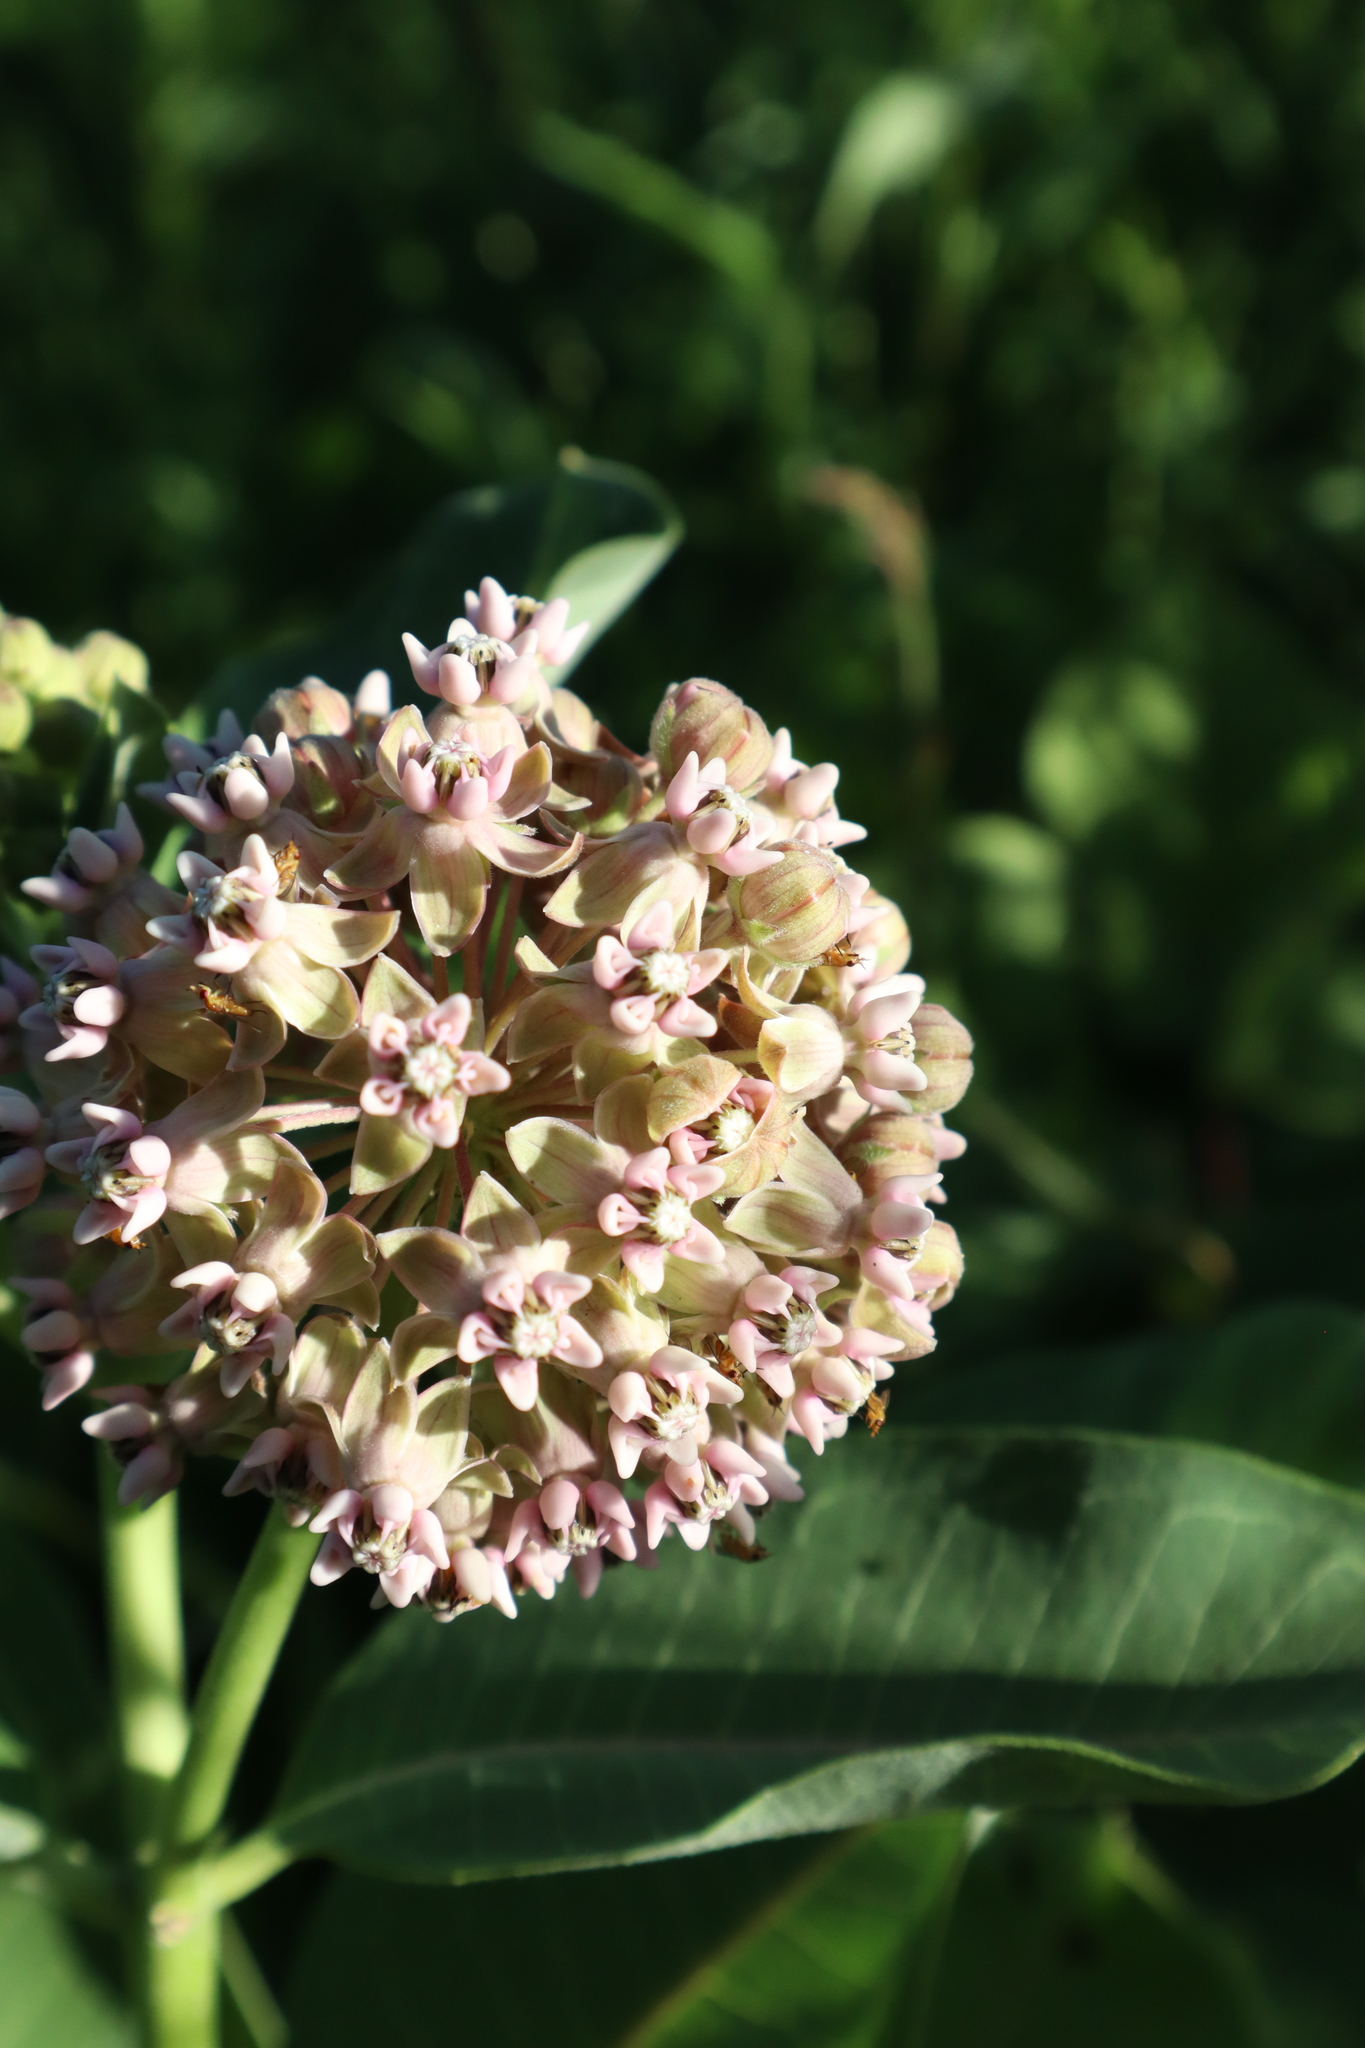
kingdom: Plantae
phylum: Tracheophyta
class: Magnoliopsida
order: Gentianales
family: Apocynaceae
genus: Asclepias
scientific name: Asclepias syriaca
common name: Common milkweed
